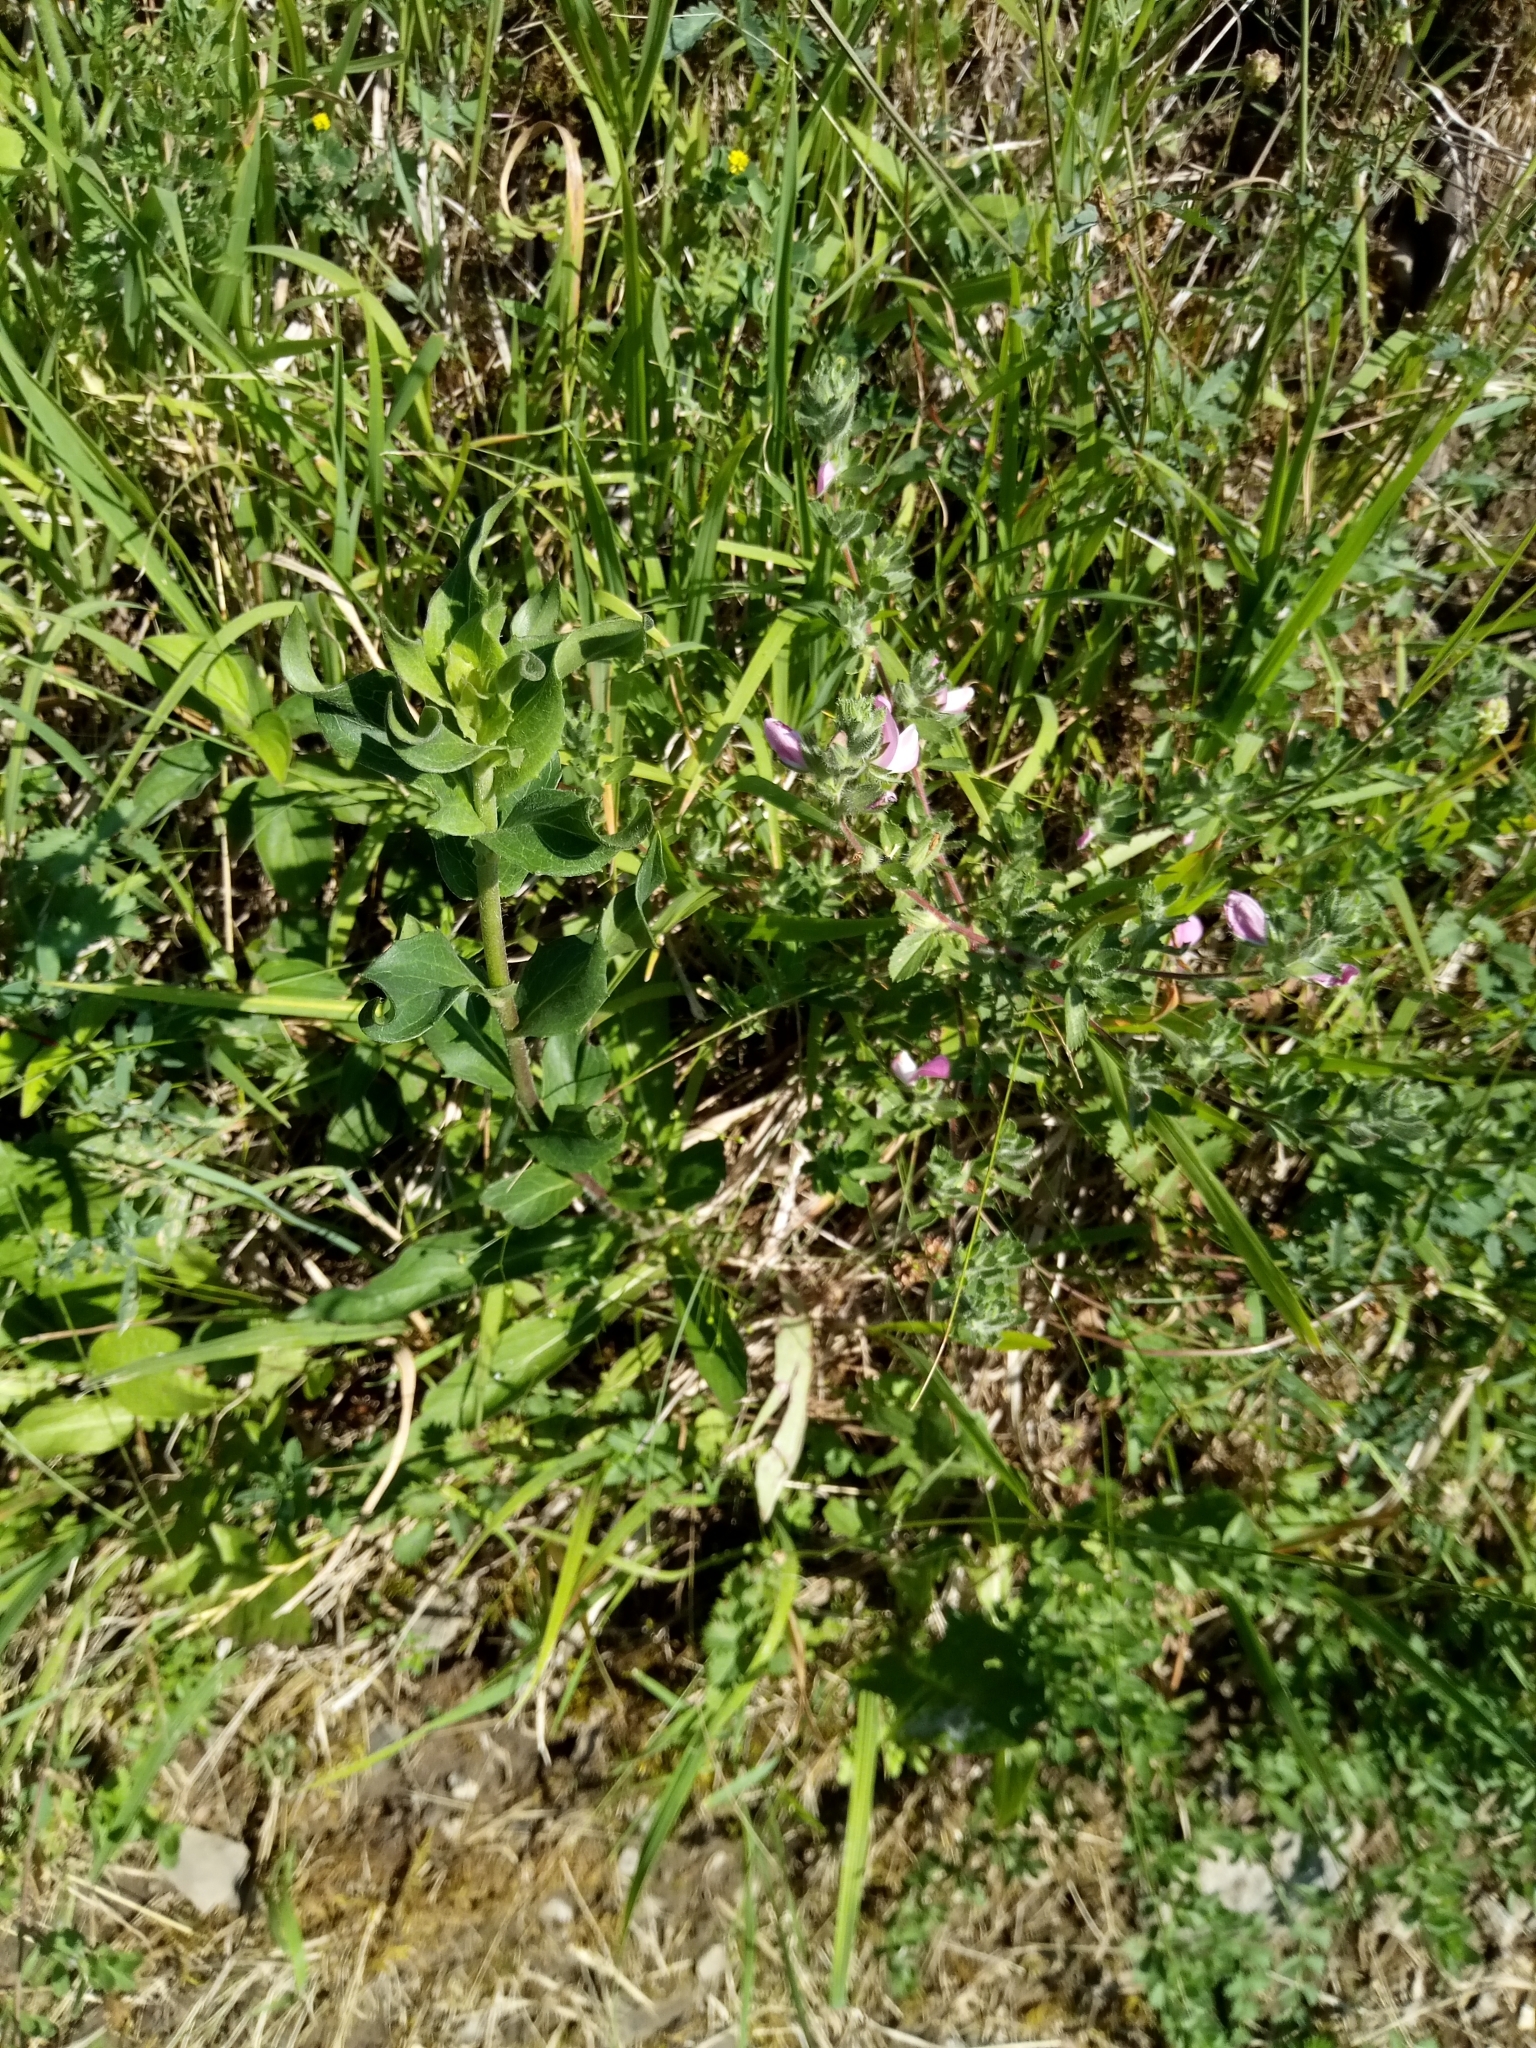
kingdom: Plantae
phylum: Tracheophyta
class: Magnoliopsida
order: Fabales
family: Fabaceae
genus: Ononis
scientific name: Ononis spinosa
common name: Spiny restharrow
